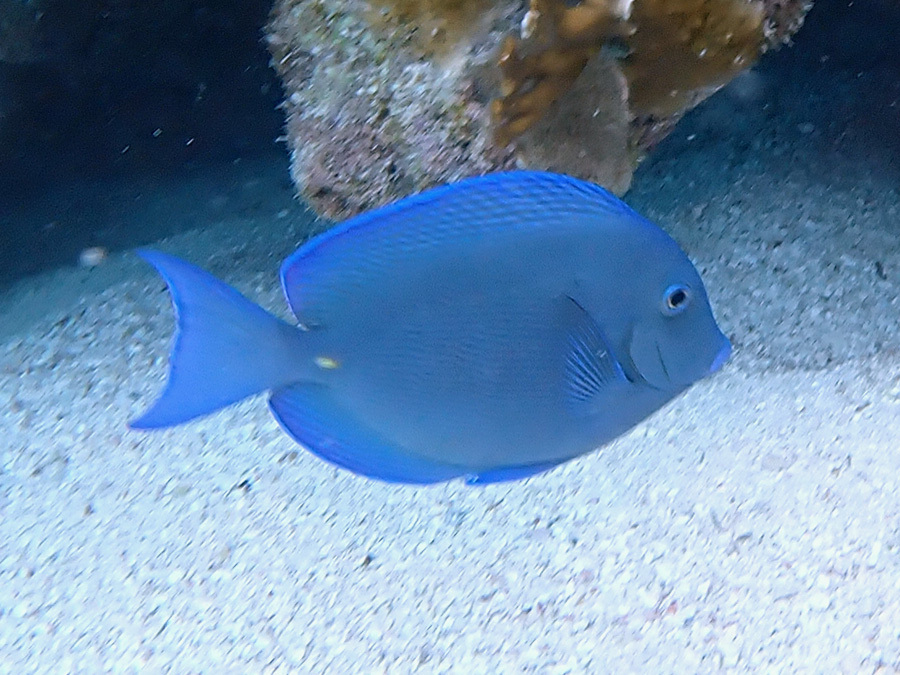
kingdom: Animalia
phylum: Chordata
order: Perciformes
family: Acanthuridae
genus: Acanthurus
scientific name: Acanthurus coeruleus
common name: Blue tang
